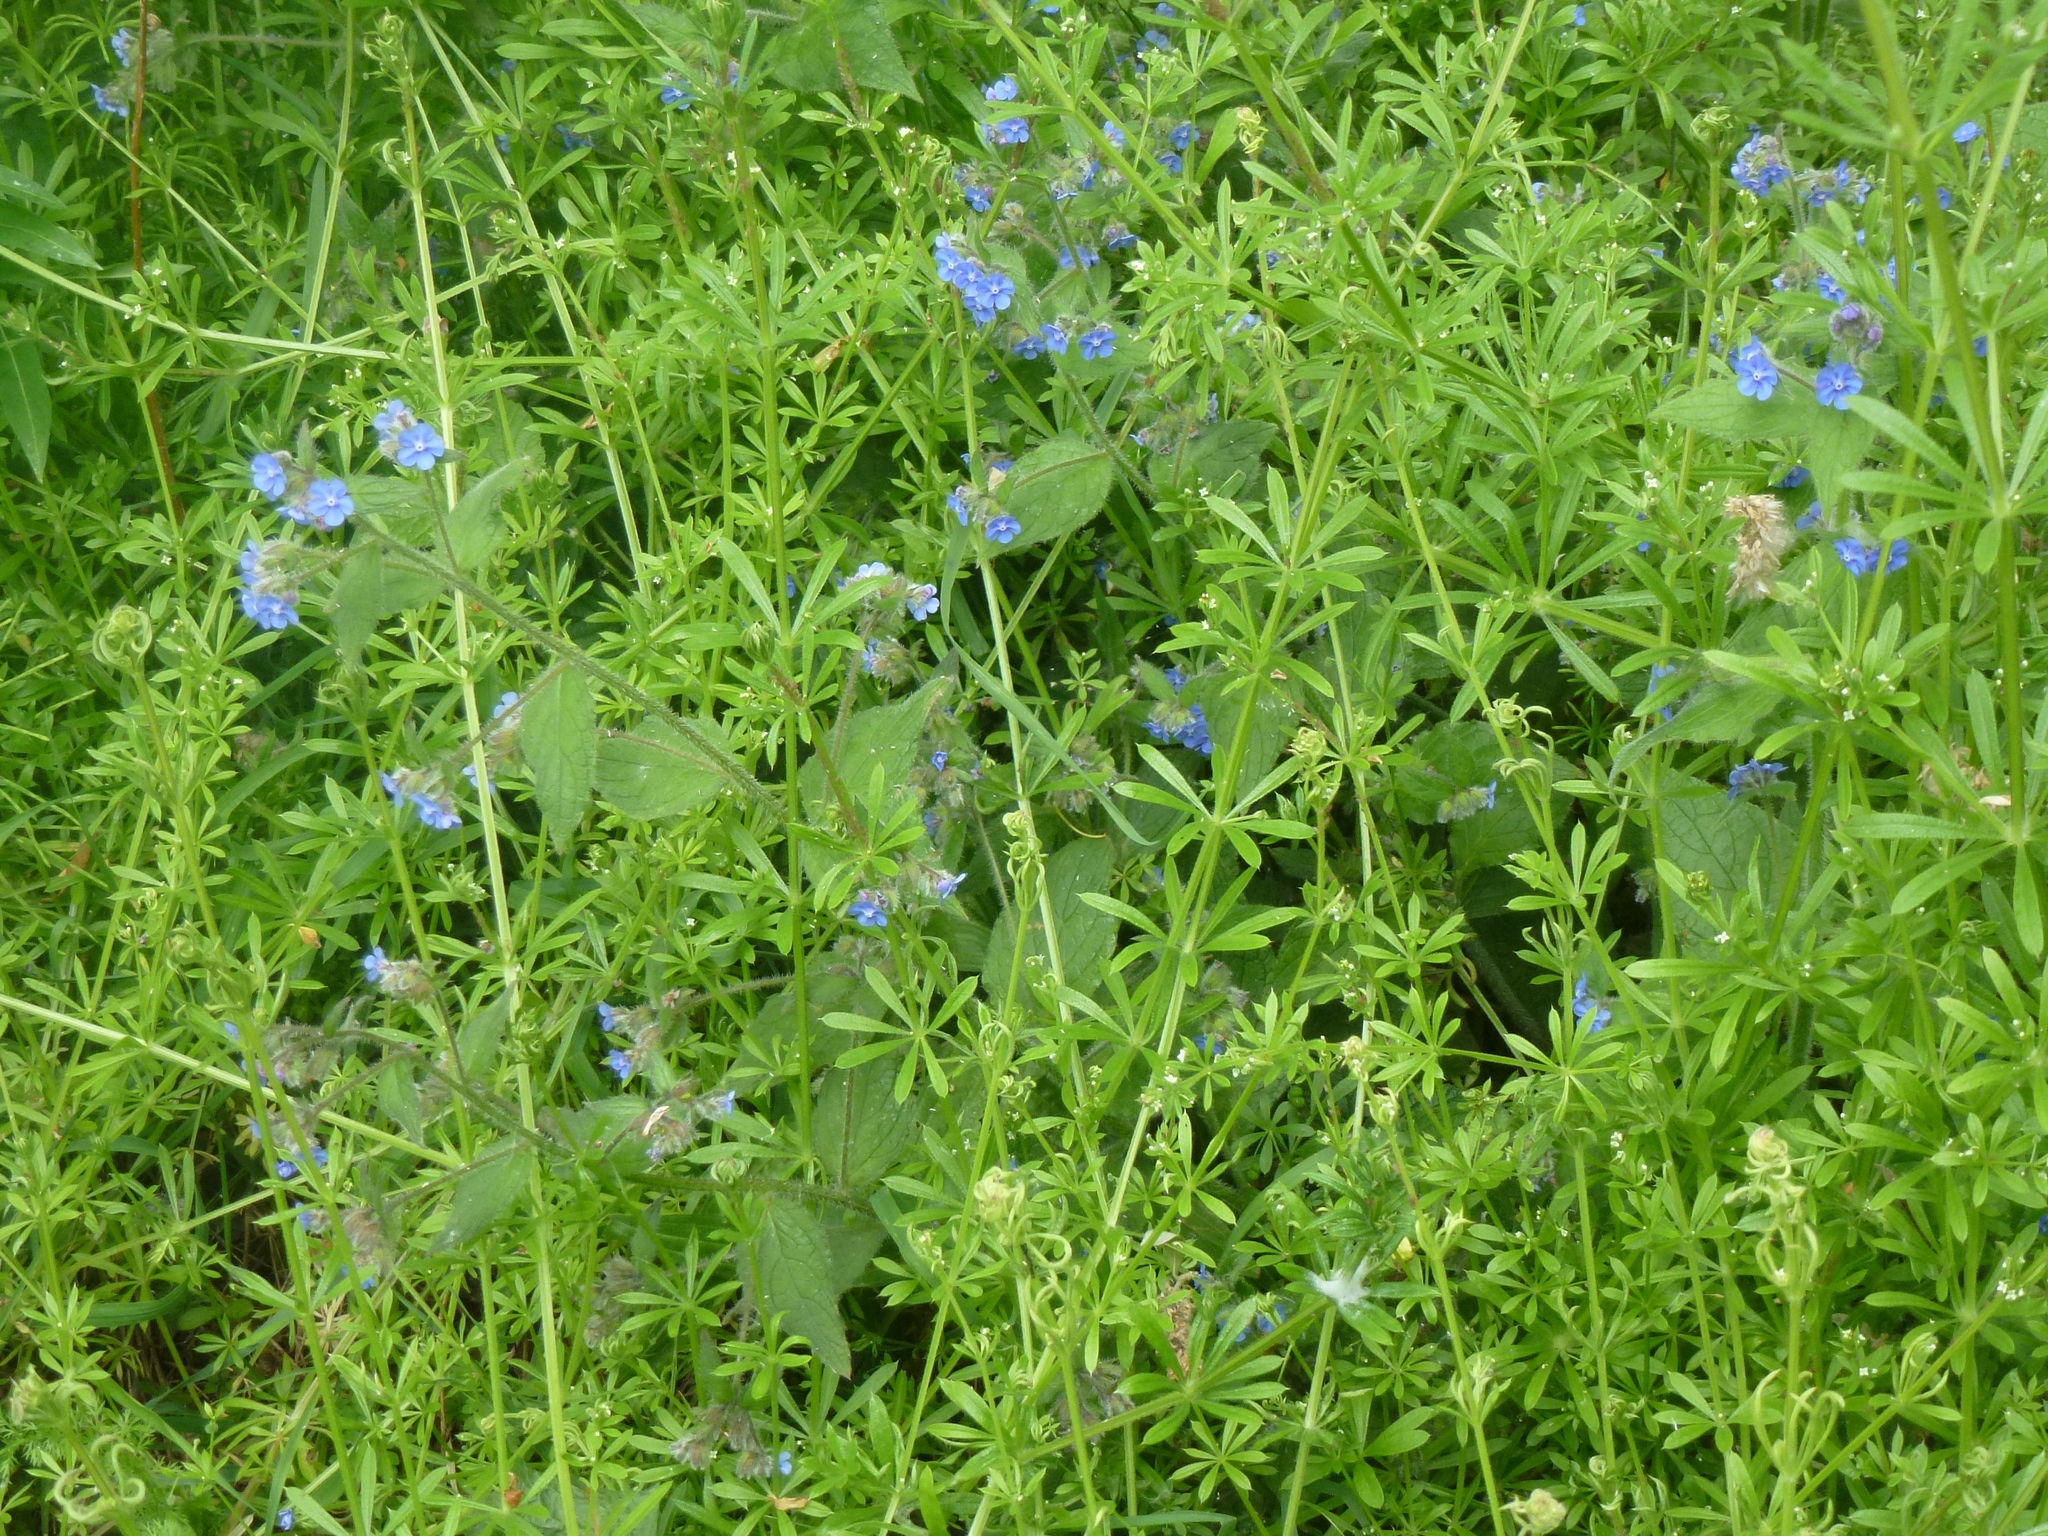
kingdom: Plantae
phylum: Tracheophyta
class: Magnoliopsida
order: Boraginales
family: Boraginaceae
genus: Pentaglottis
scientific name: Pentaglottis sempervirens
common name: Green alkanet
